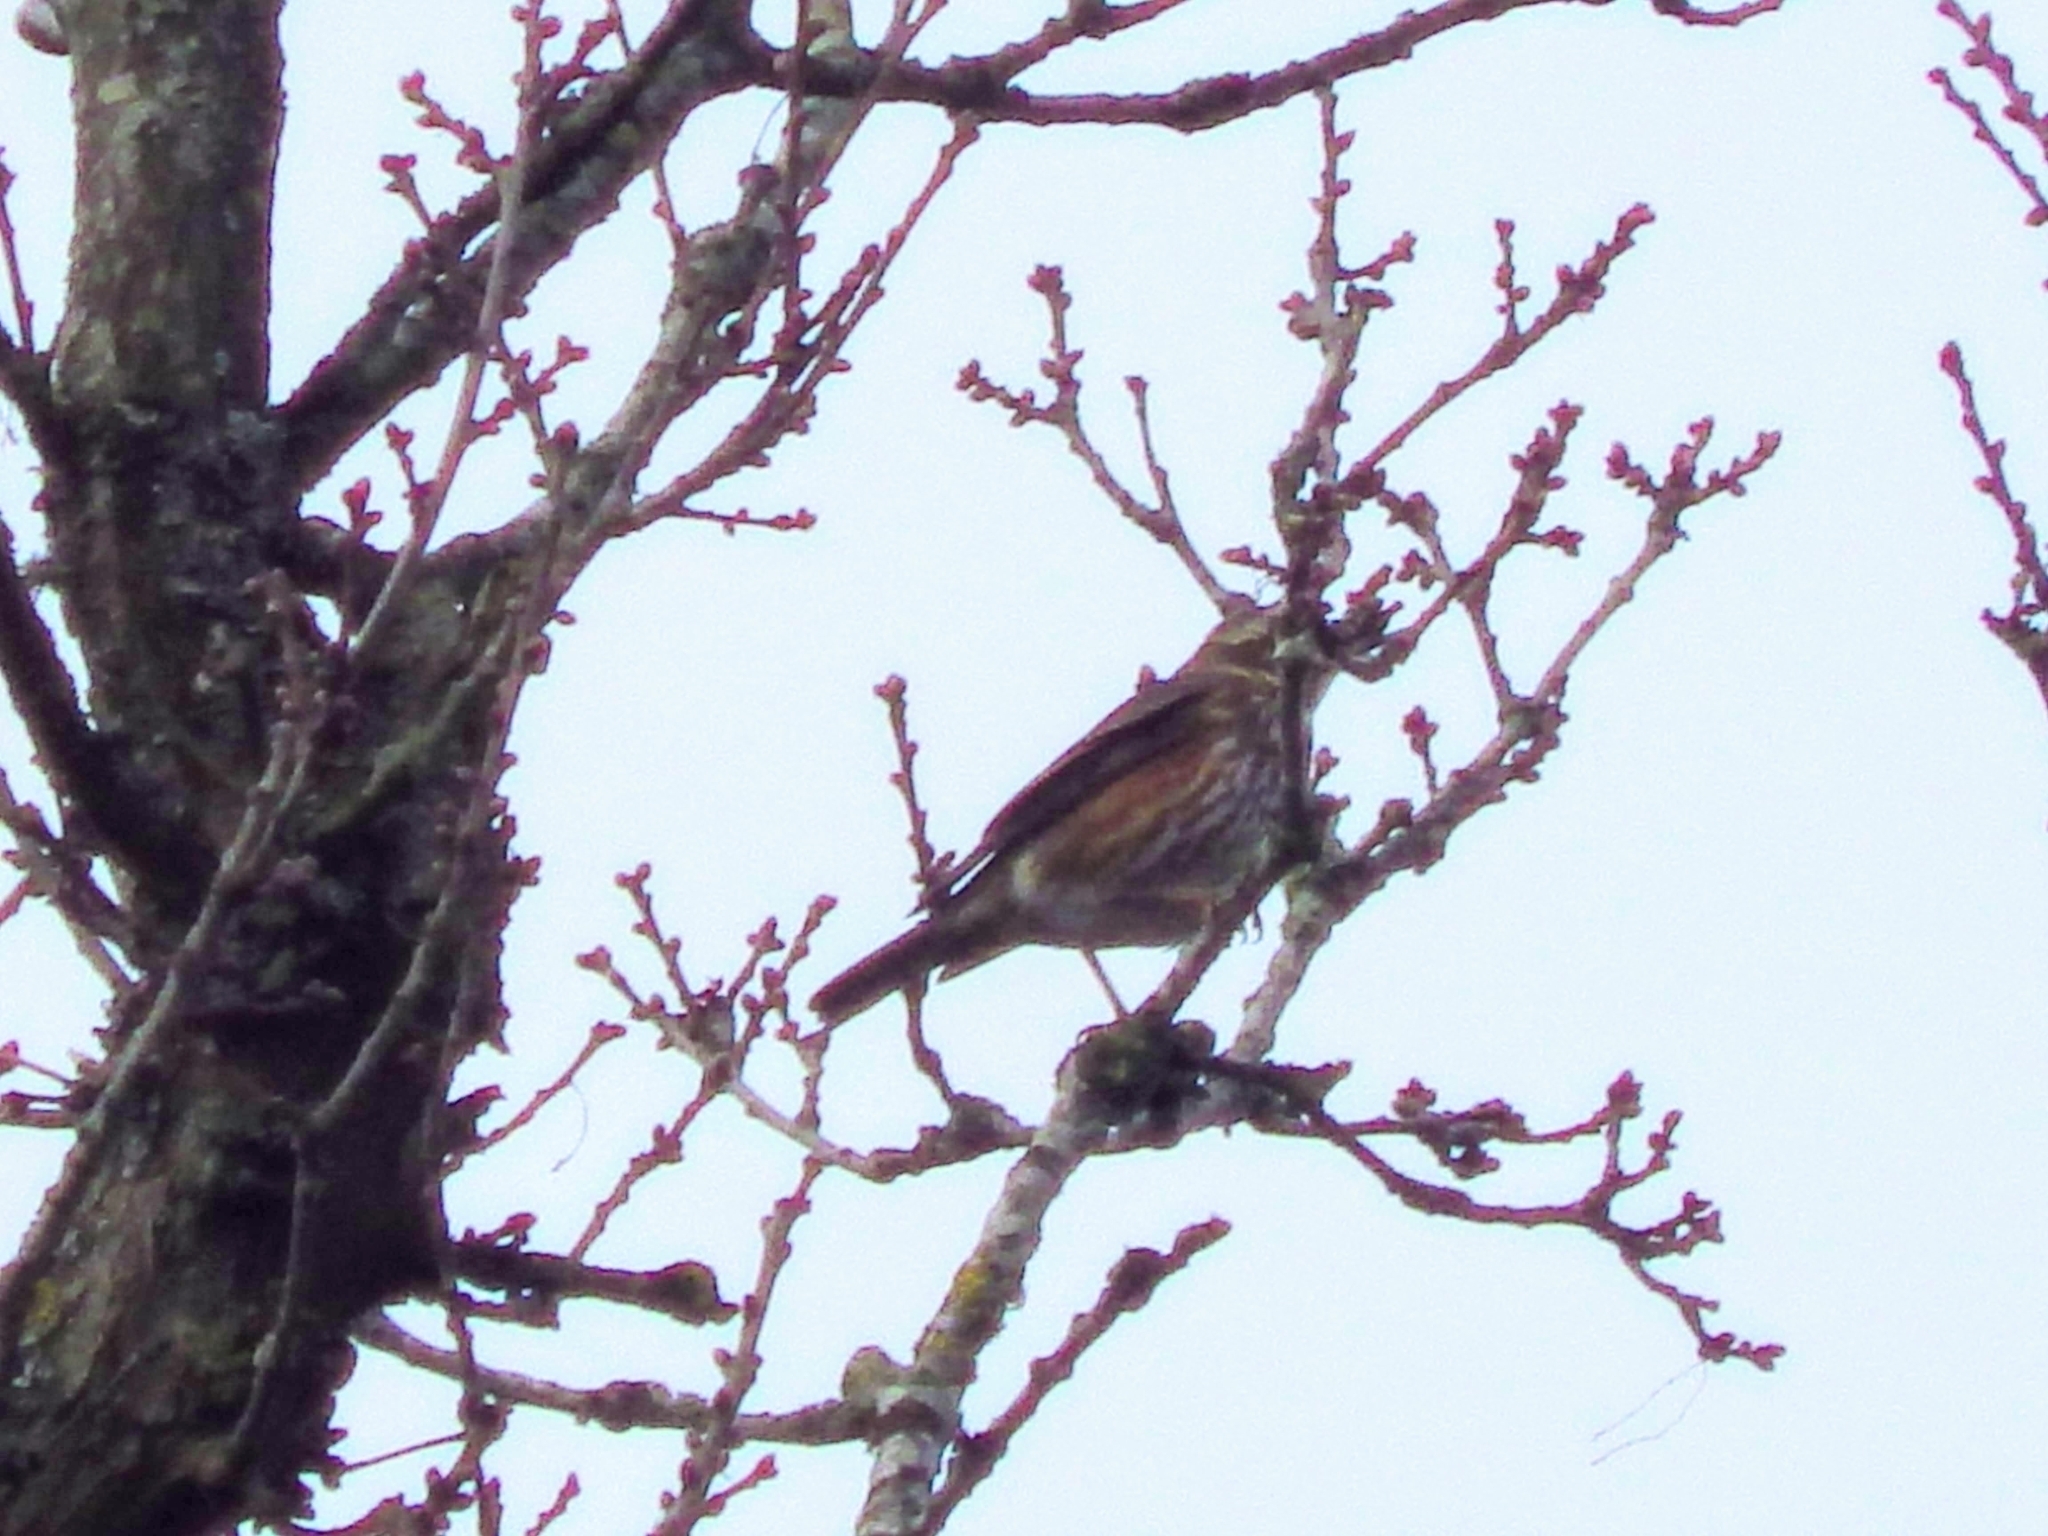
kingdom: Animalia
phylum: Chordata
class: Aves
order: Passeriformes
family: Turdidae
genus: Turdus
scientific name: Turdus iliacus
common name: Redwing
